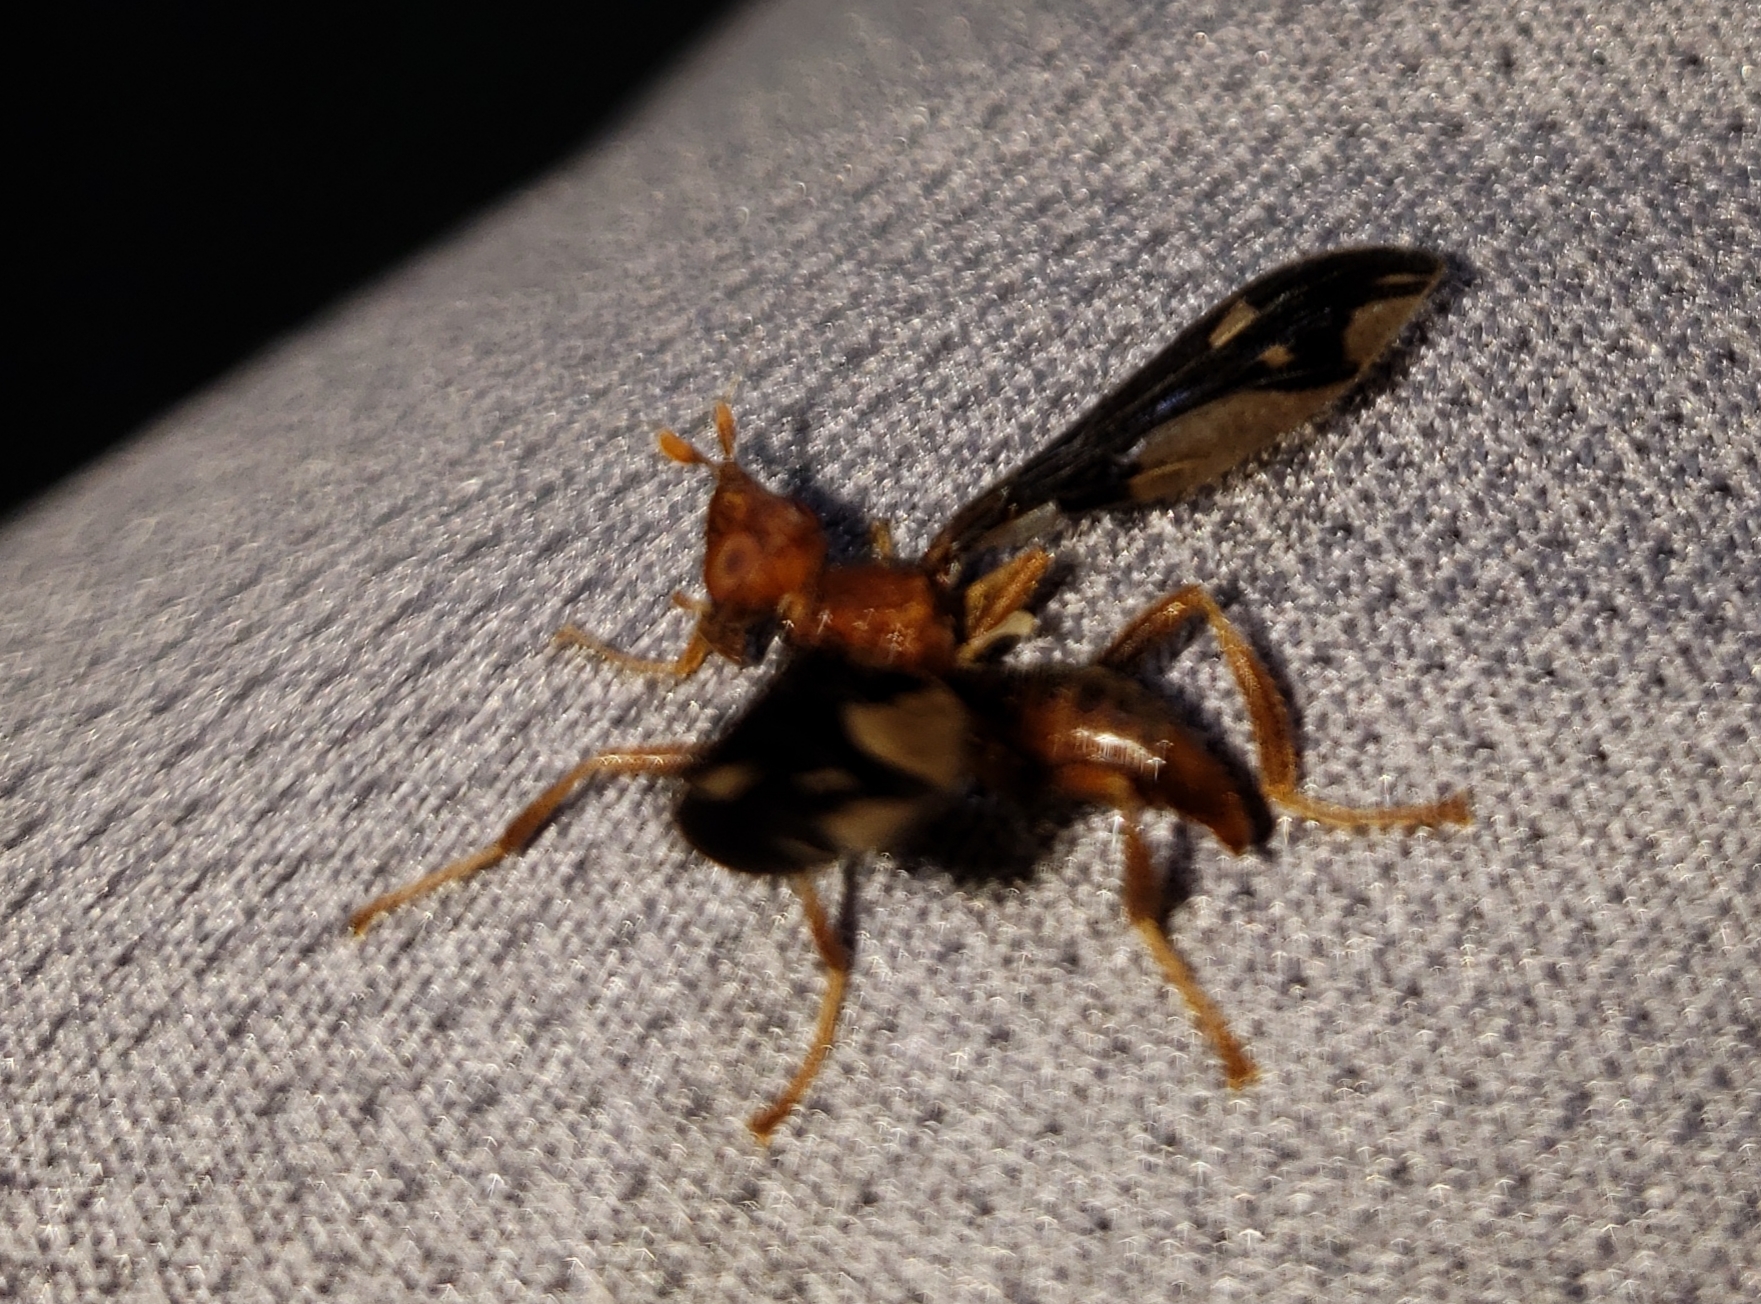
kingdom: Animalia
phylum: Arthropoda
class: Insecta
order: Diptera
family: Pyrgotidae
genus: Pyrgota
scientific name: Pyrgota undata
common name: Waved light fly
